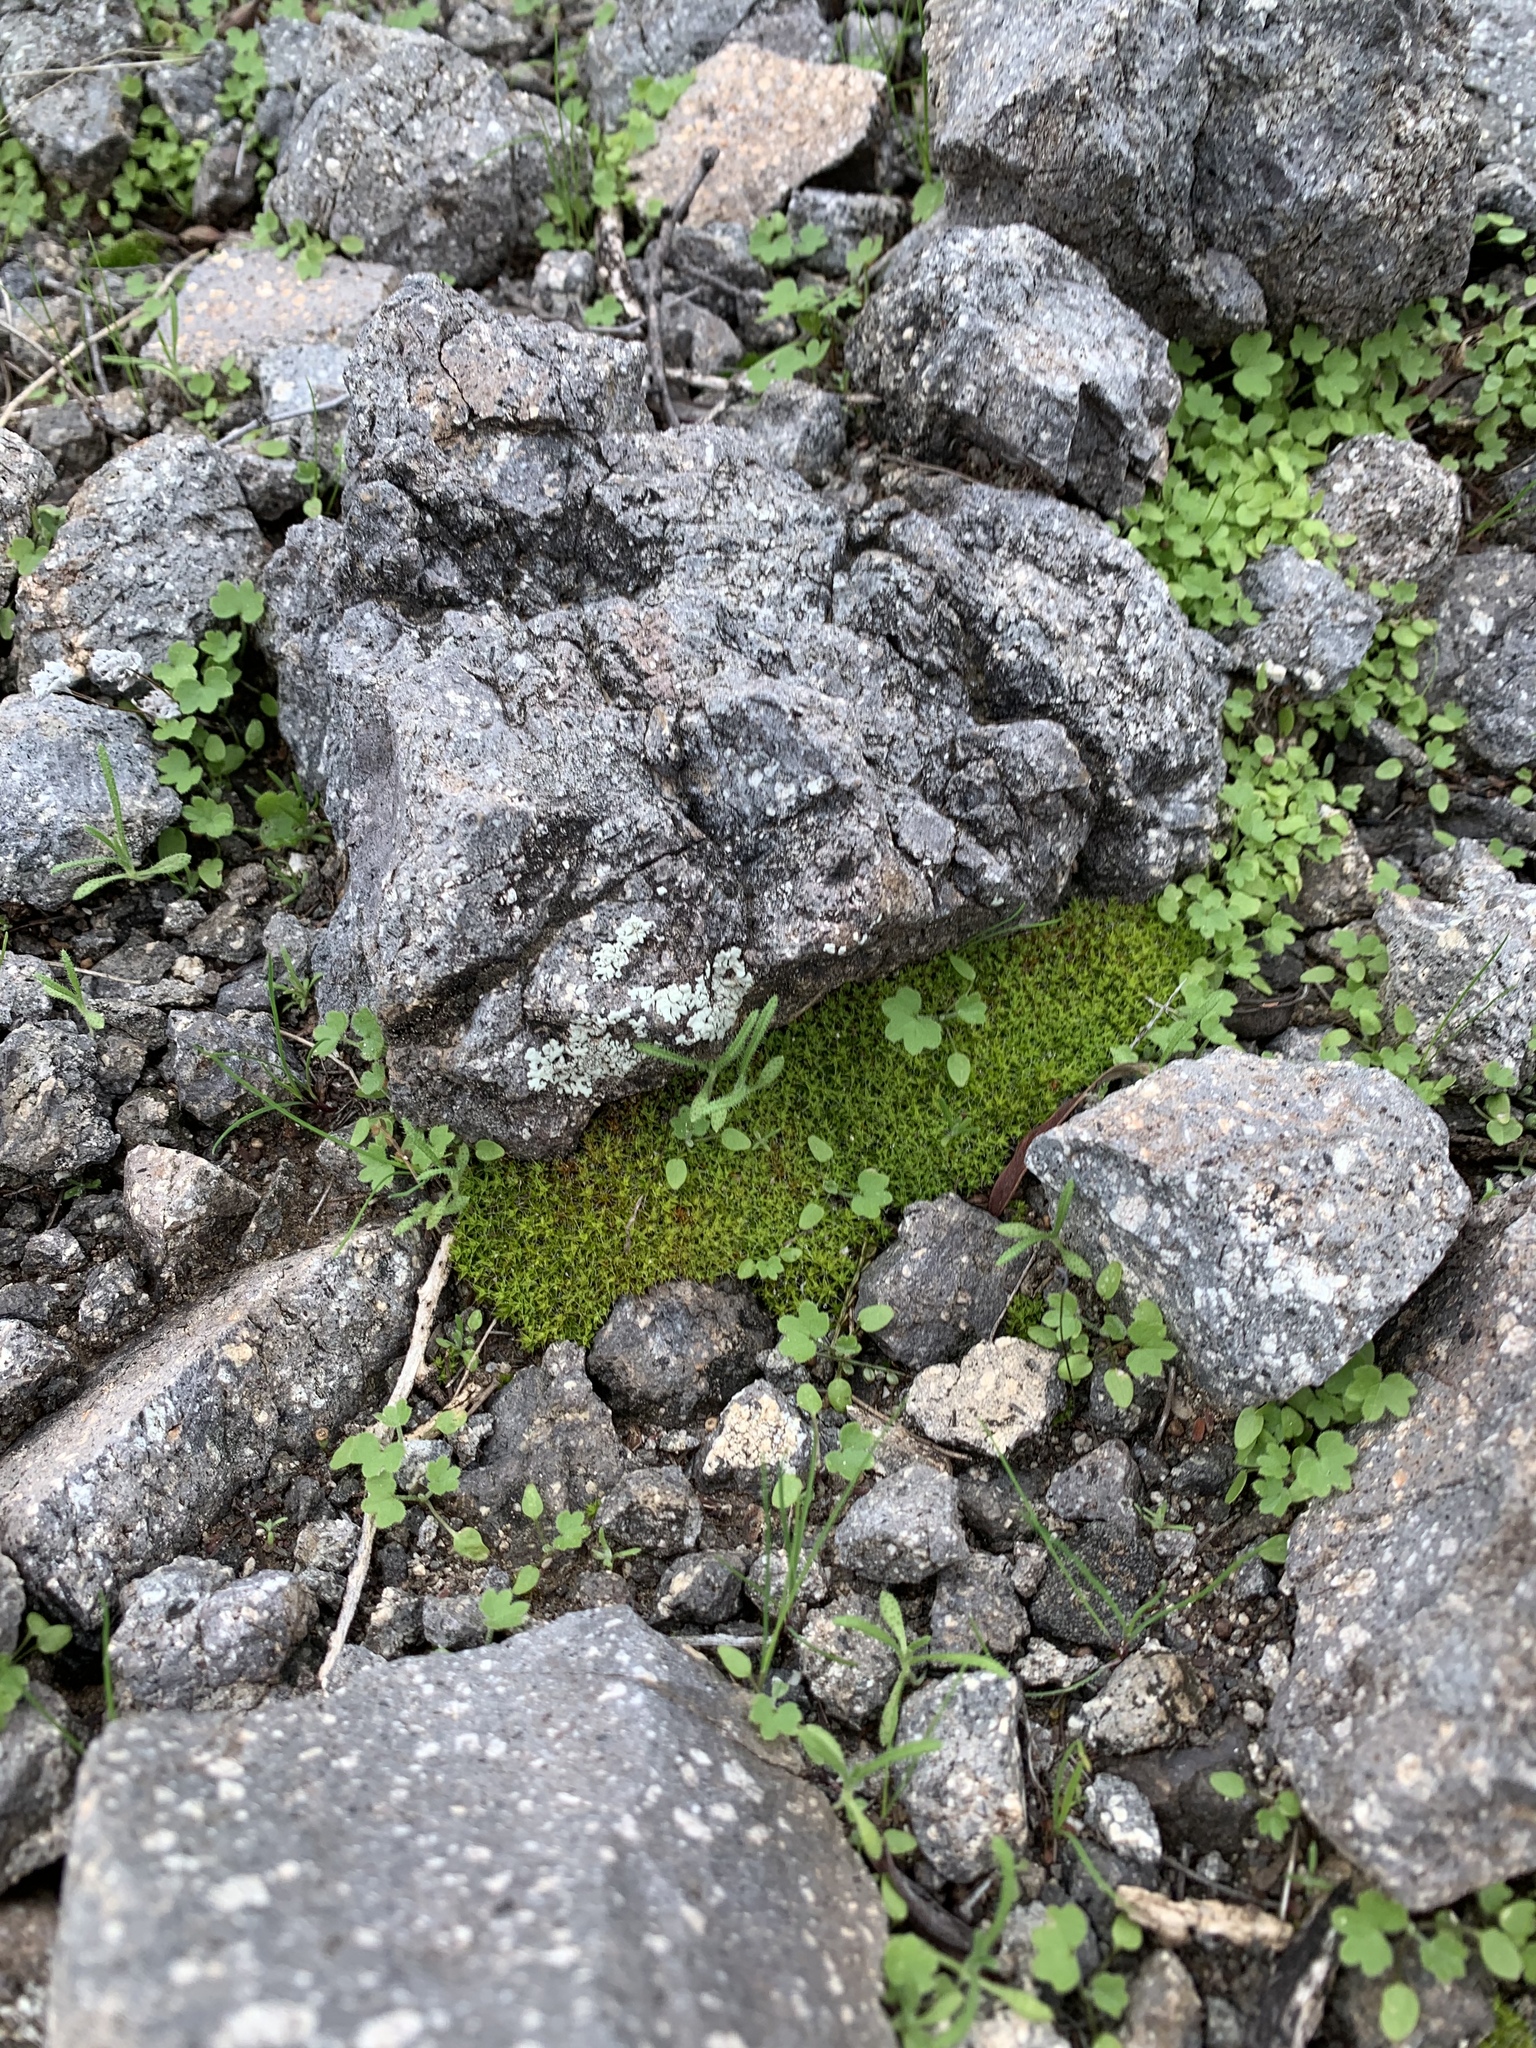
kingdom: Plantae
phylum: Bryophyta
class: Bryopsida
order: Pottiales
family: Pottiaceae
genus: Syntrichia
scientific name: Syntrichia ruralis
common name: Sidewalk screw moss
